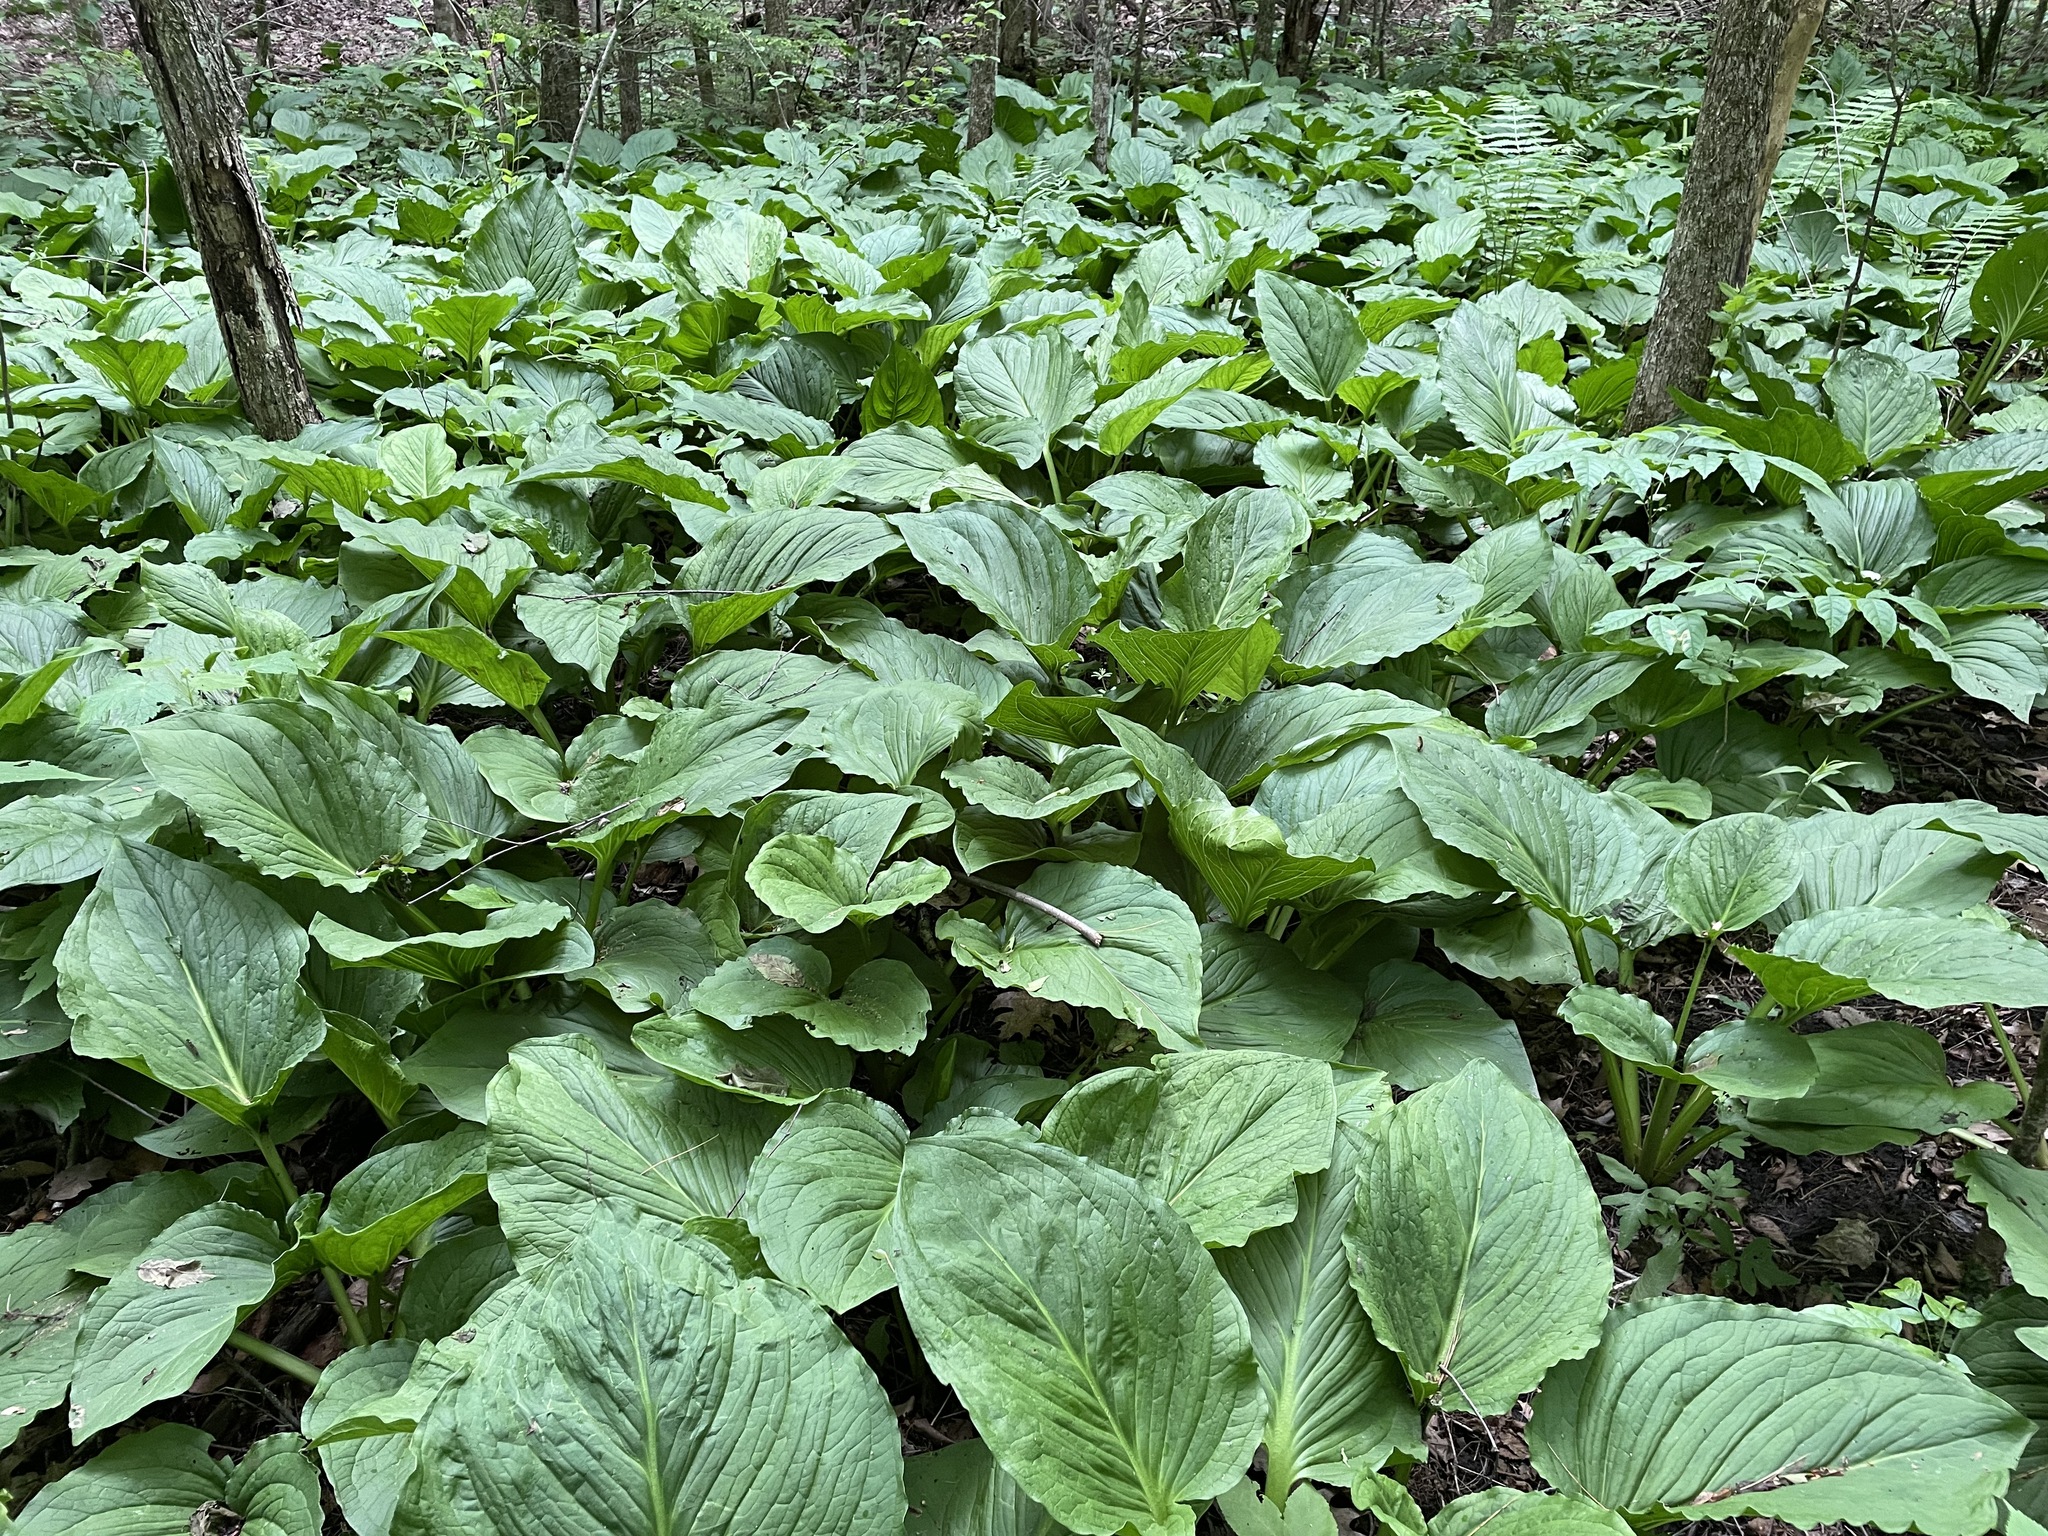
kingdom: Plantae
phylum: Tracheophyta
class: Liliopsida
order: Alismatales
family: Araceae
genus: Symplocarpus
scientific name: Symplocarpus foetidus
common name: Eastern skunk cabbage
